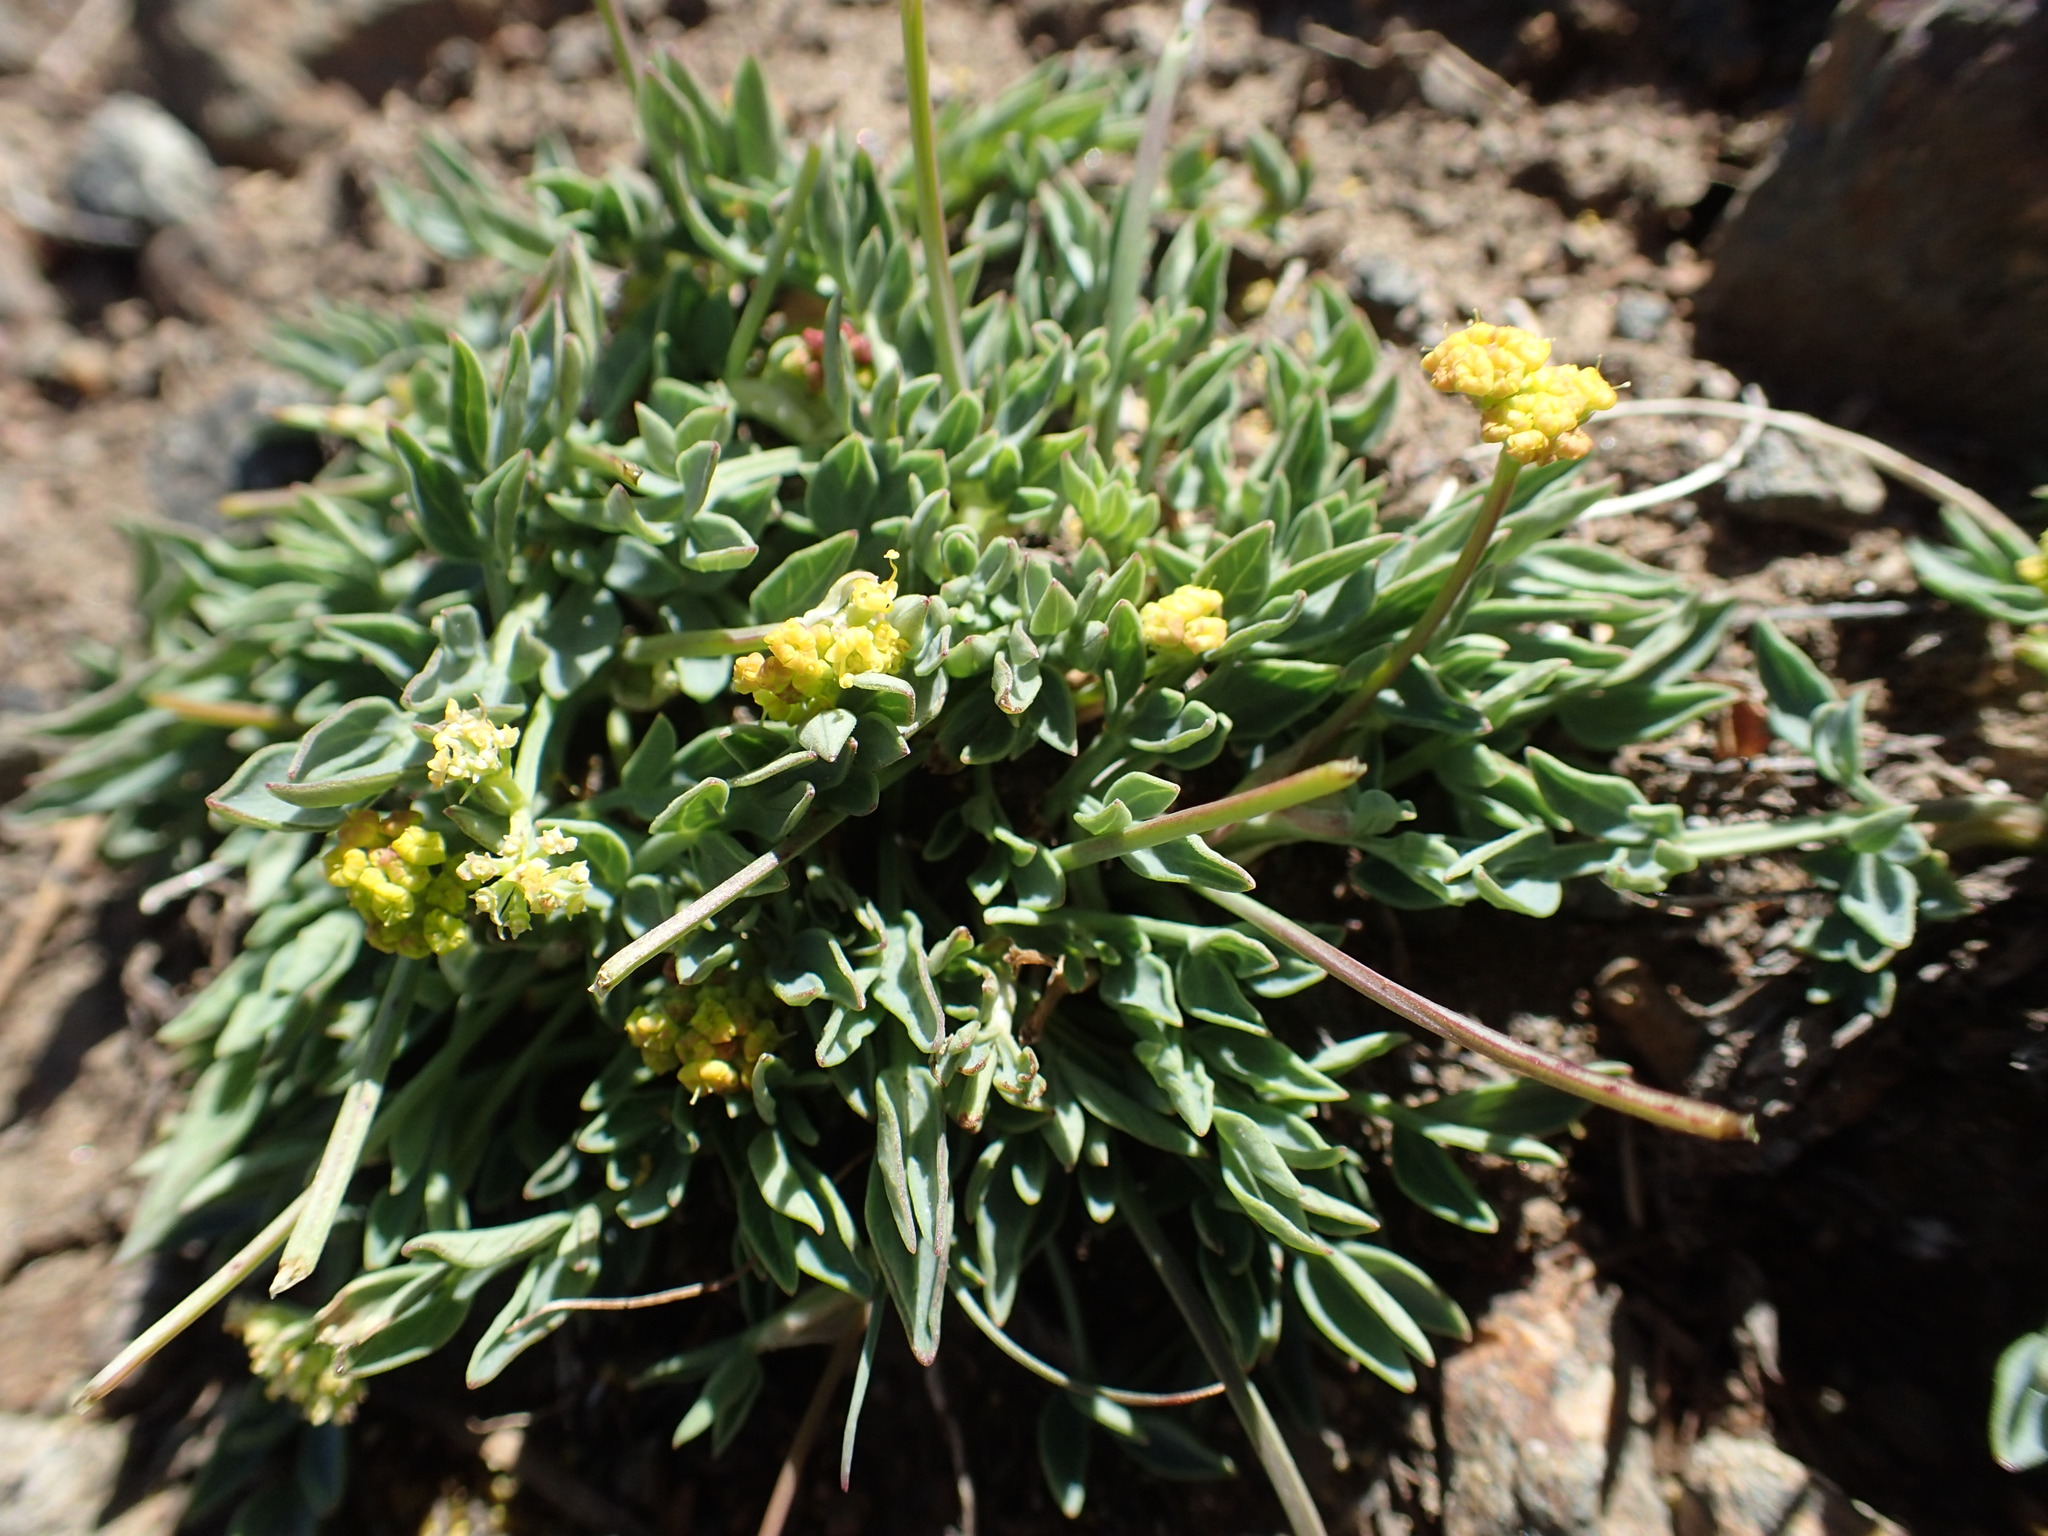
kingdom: Plantae
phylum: Tracheophyta
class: Magnoliopsida
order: Apiales
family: Apiaceae
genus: Lomatium
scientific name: Lomatium greenmanii
